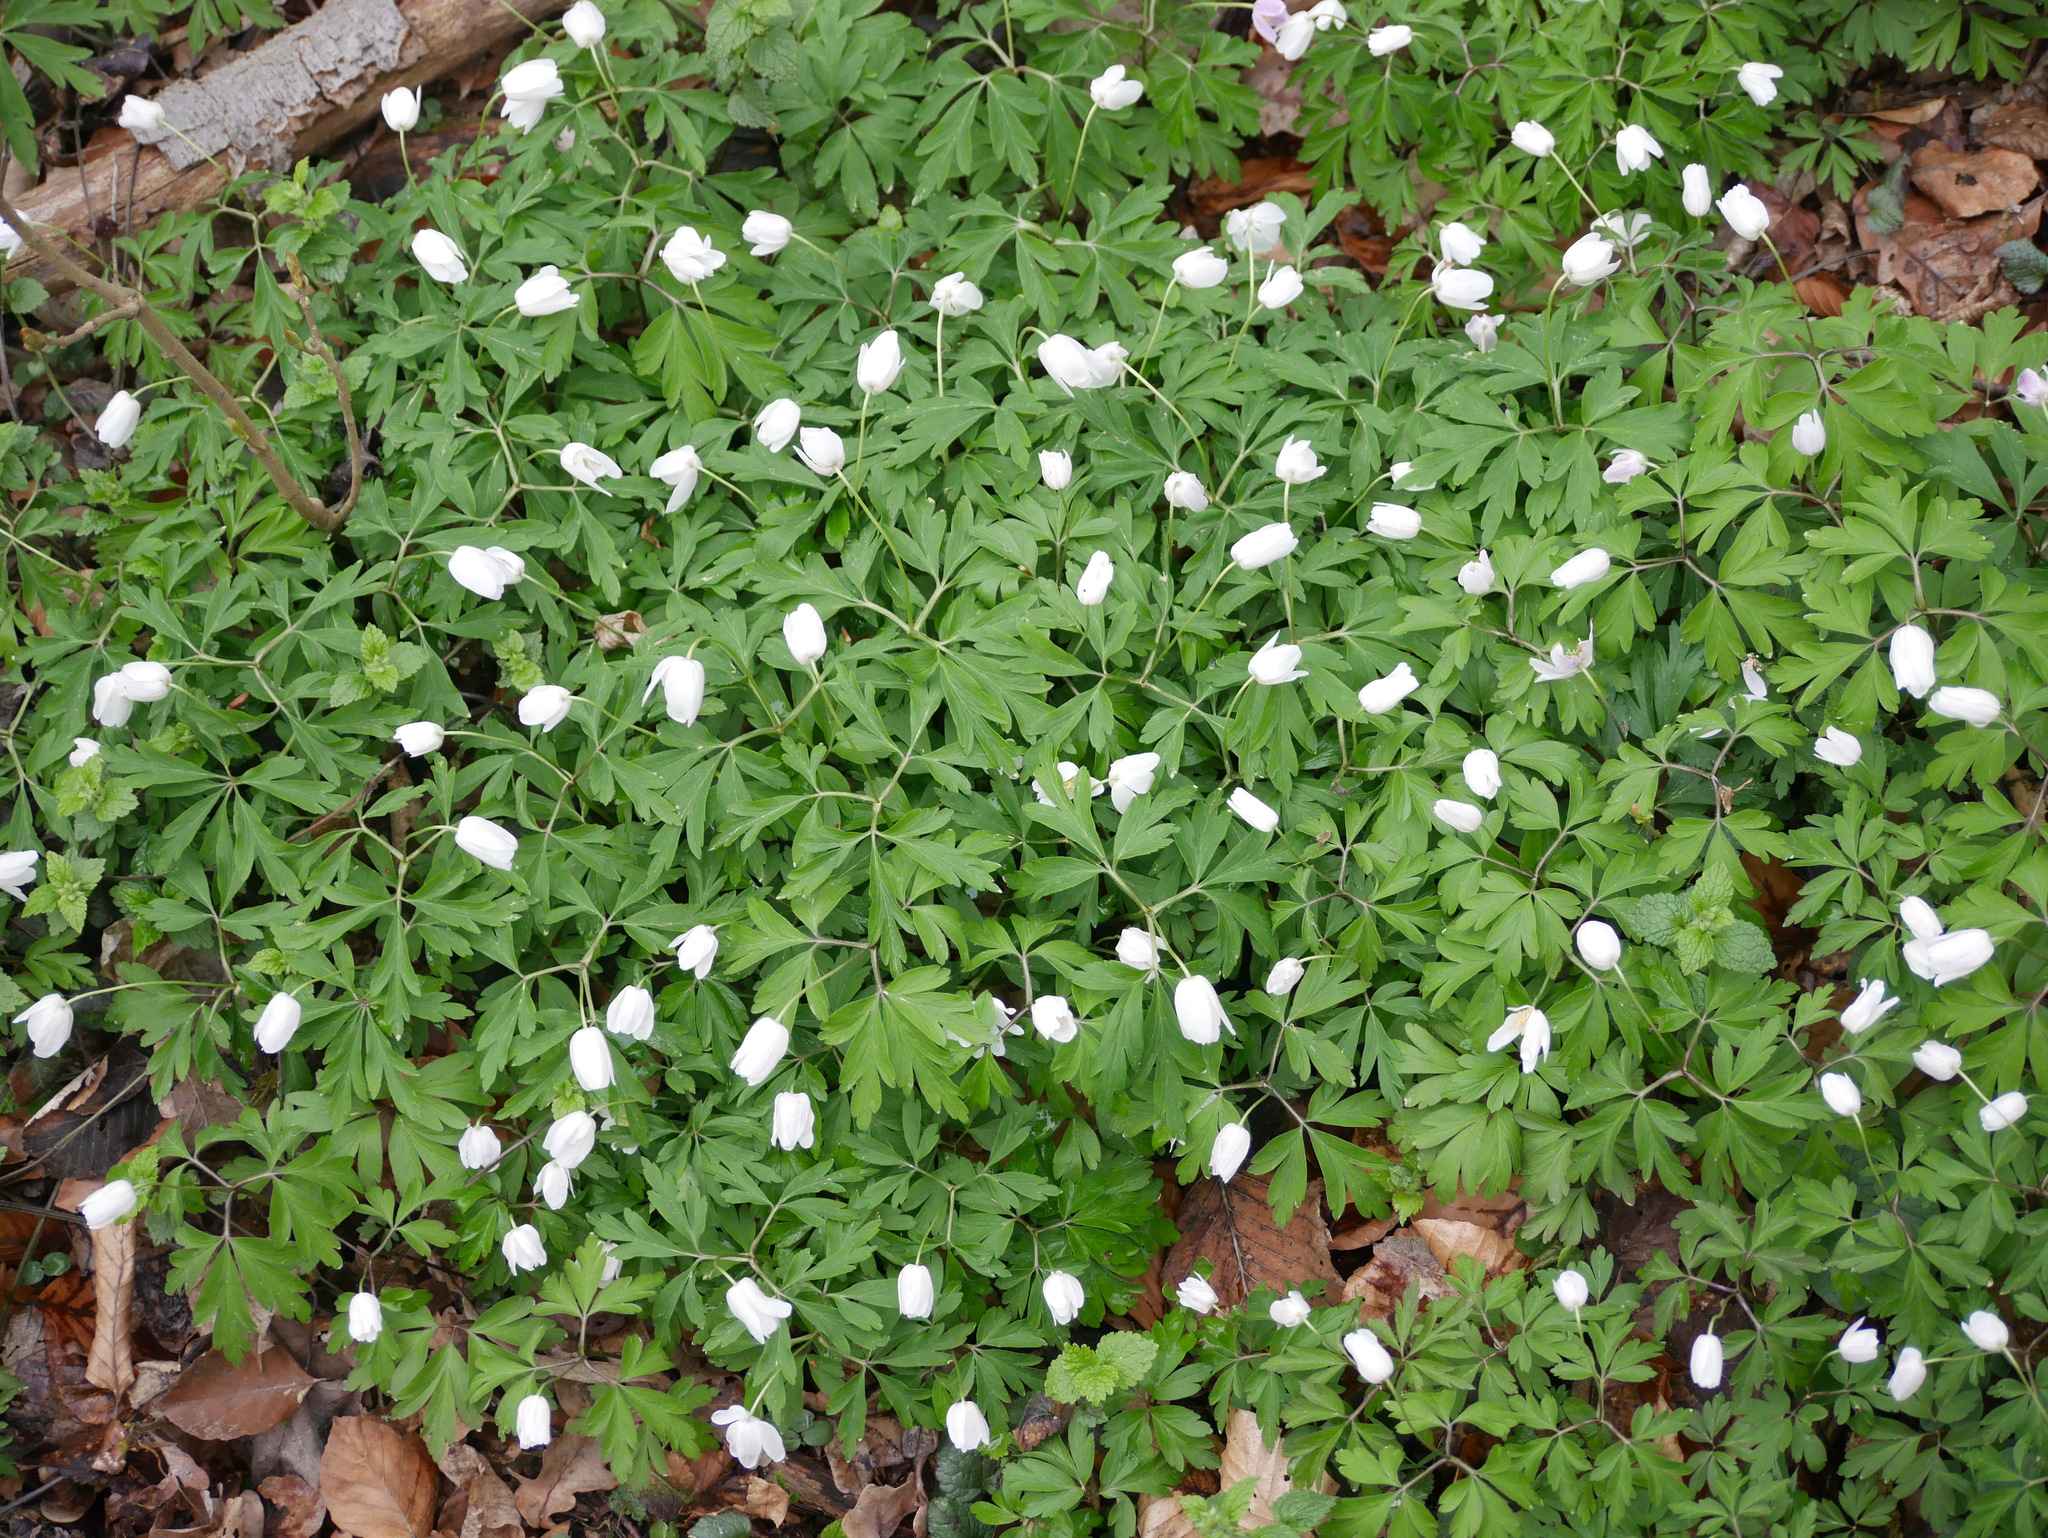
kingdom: Plantae
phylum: Tracheophyta
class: Magnoliopsida
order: Ranunculales
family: Ranunculaceae
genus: Anemone
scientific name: Anemone nemorosa
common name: Wood anemone
